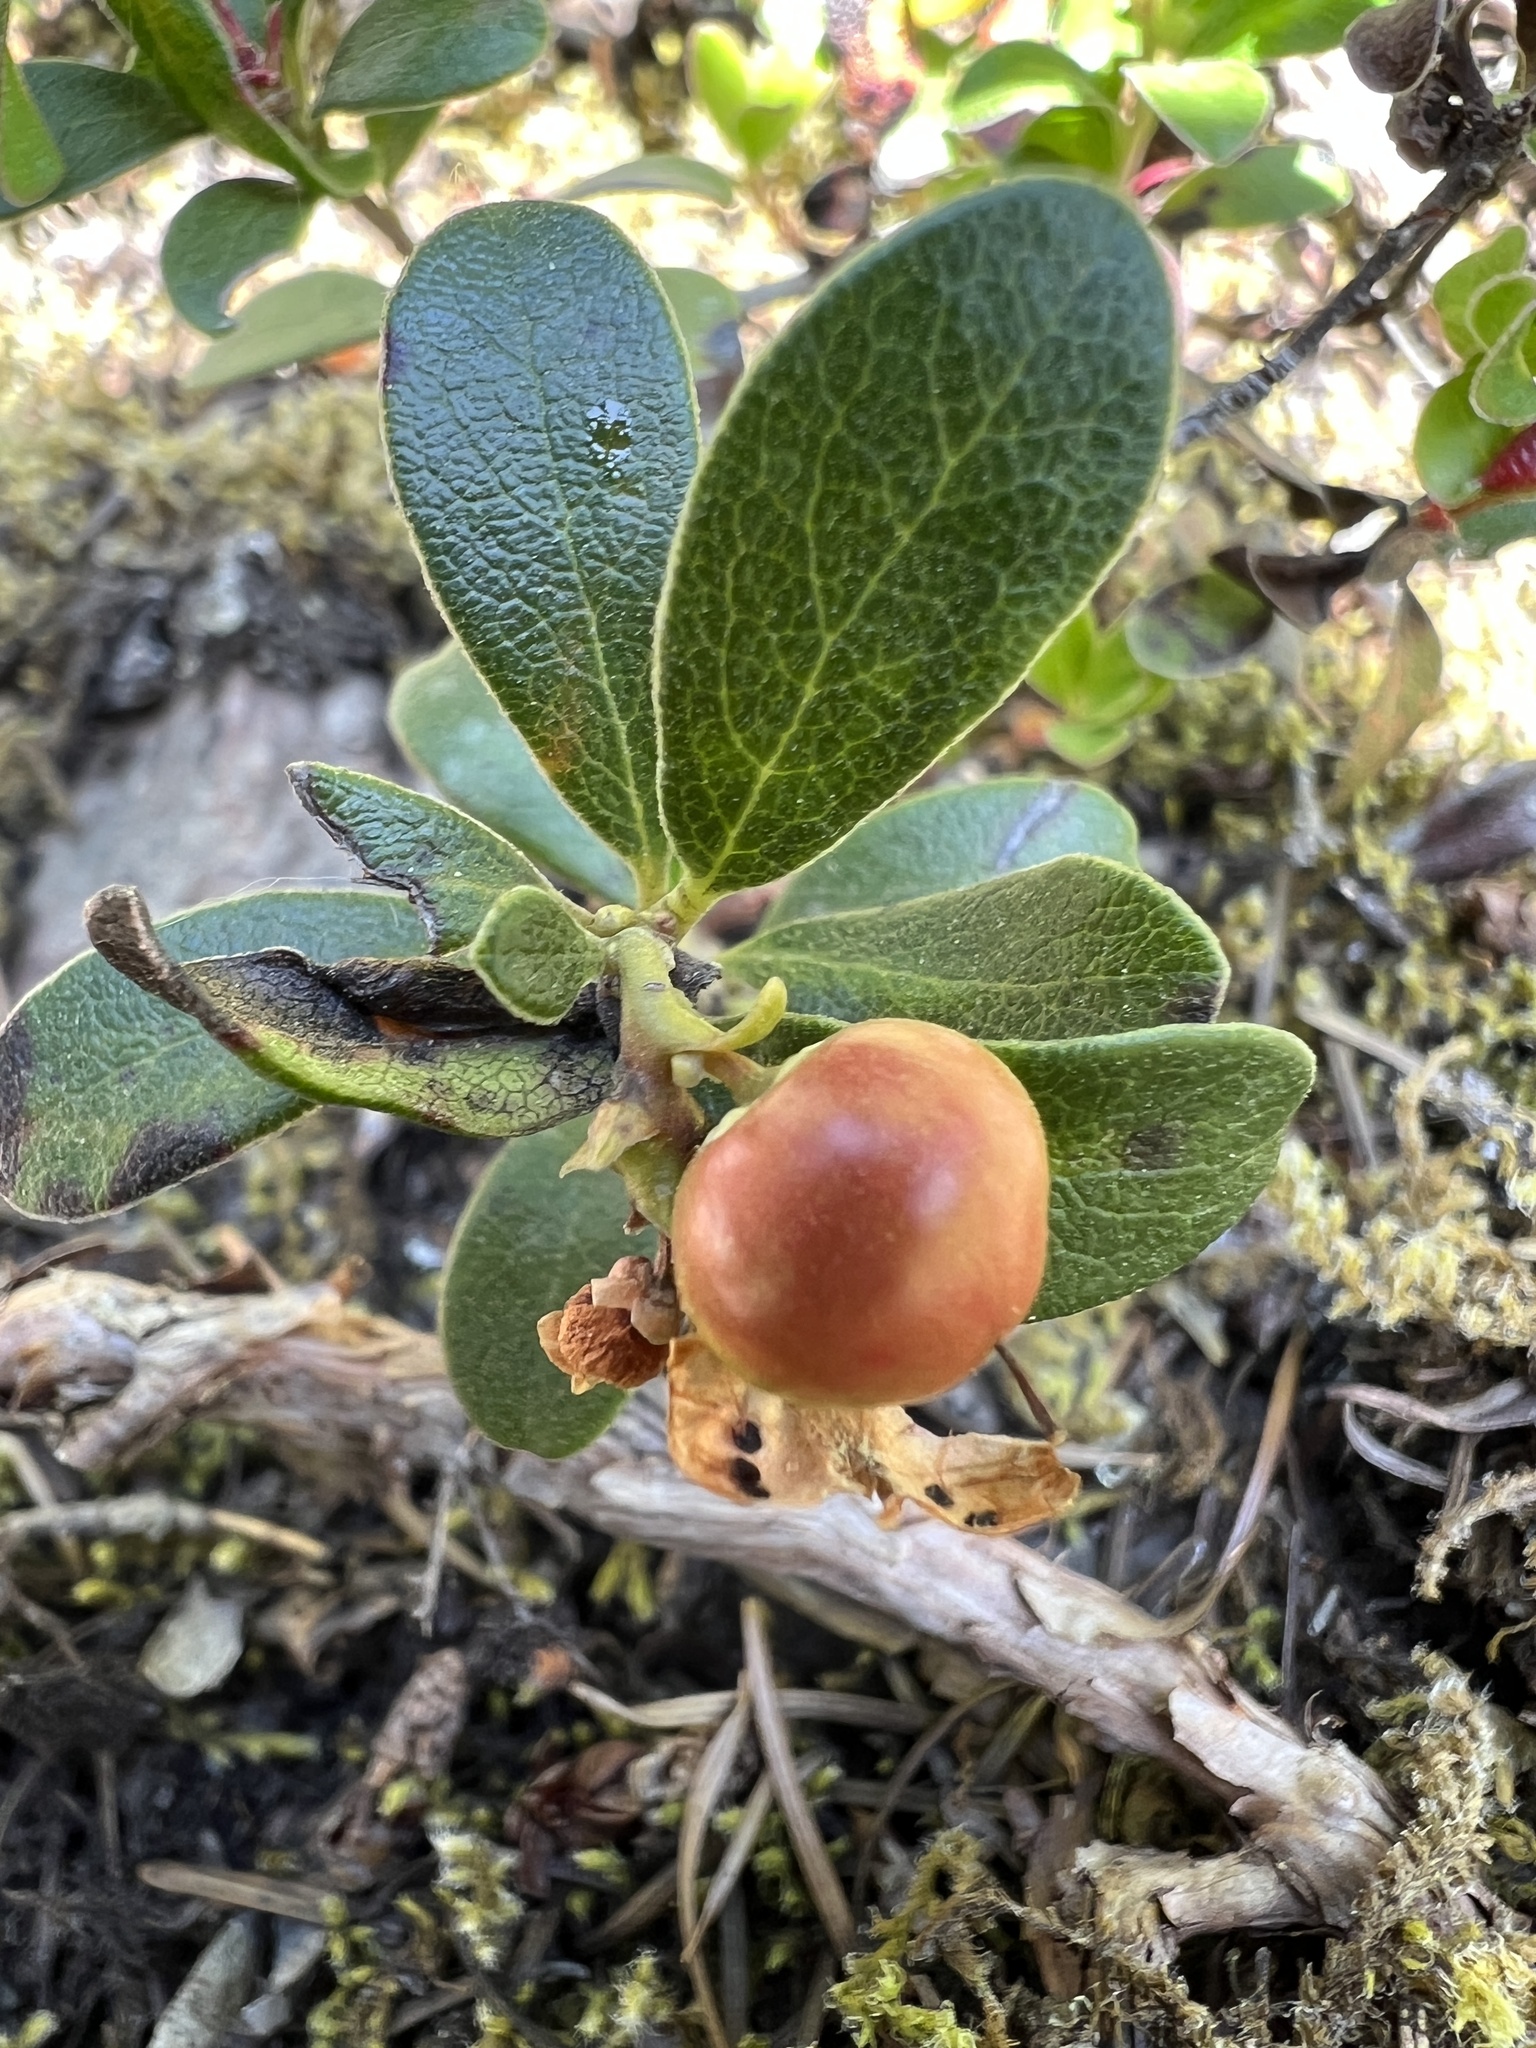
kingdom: Plantae
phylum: Tracheophyta
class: Magnoliopsida
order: Ericales
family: Ericaceae
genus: Arctostaphylos
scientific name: Arctostaphylos uva-ursi
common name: Bearberry
